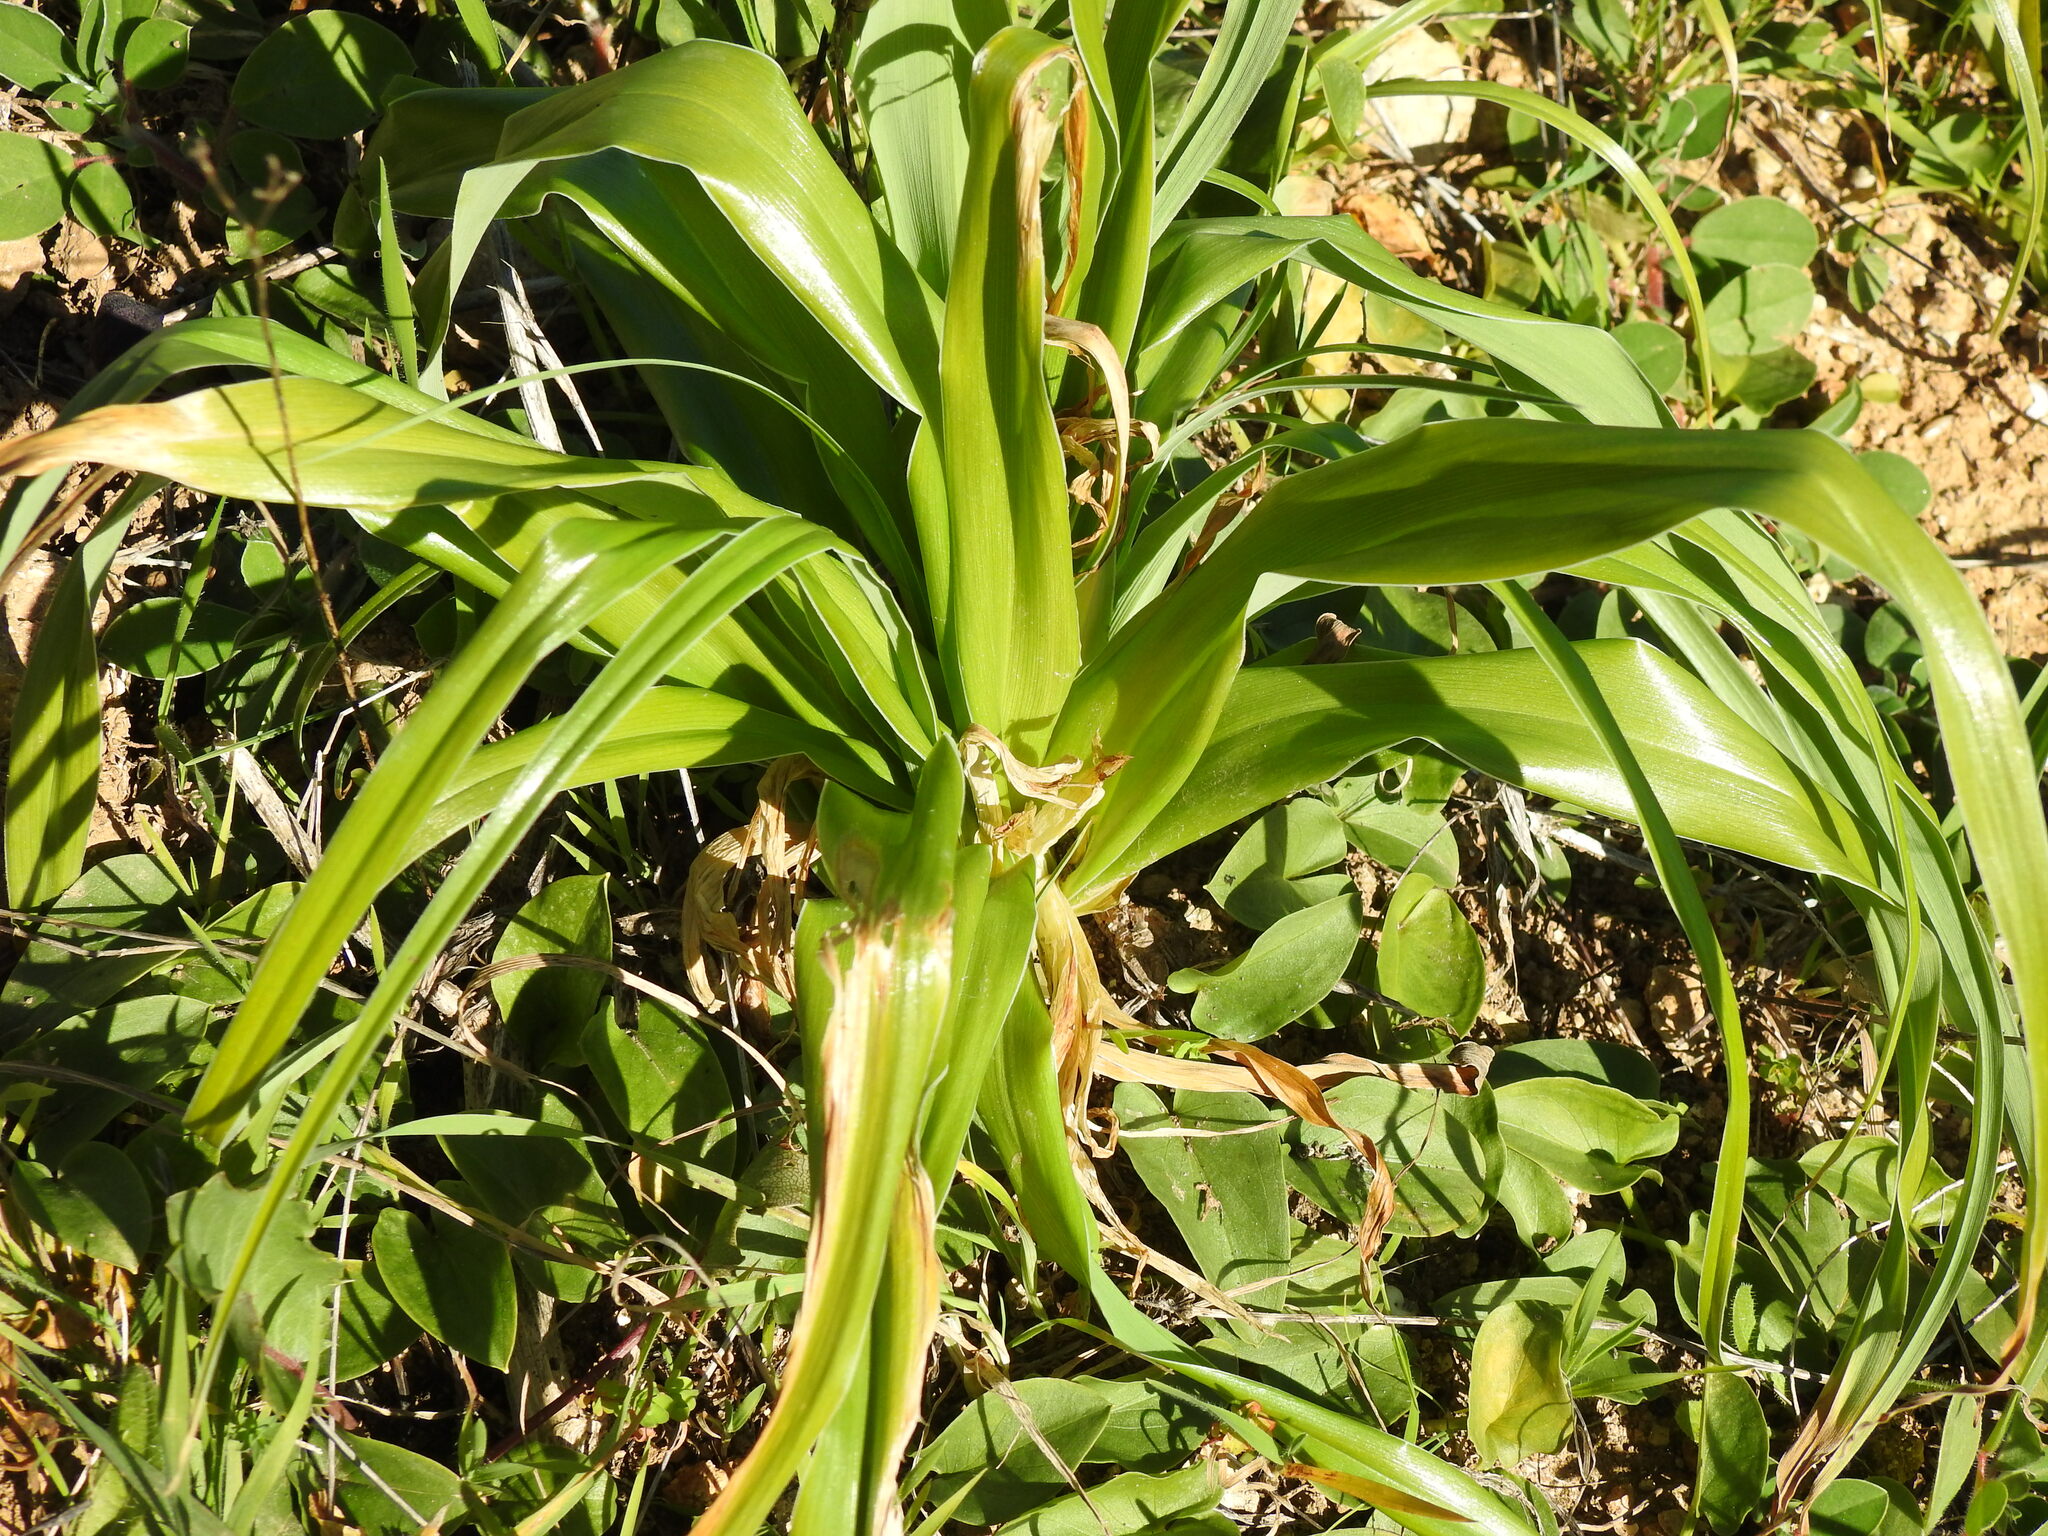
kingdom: Plantae
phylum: Tracheophyta
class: Liliopsida
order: Asparagales
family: Iridaceae
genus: Iris
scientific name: Iris planifolia
